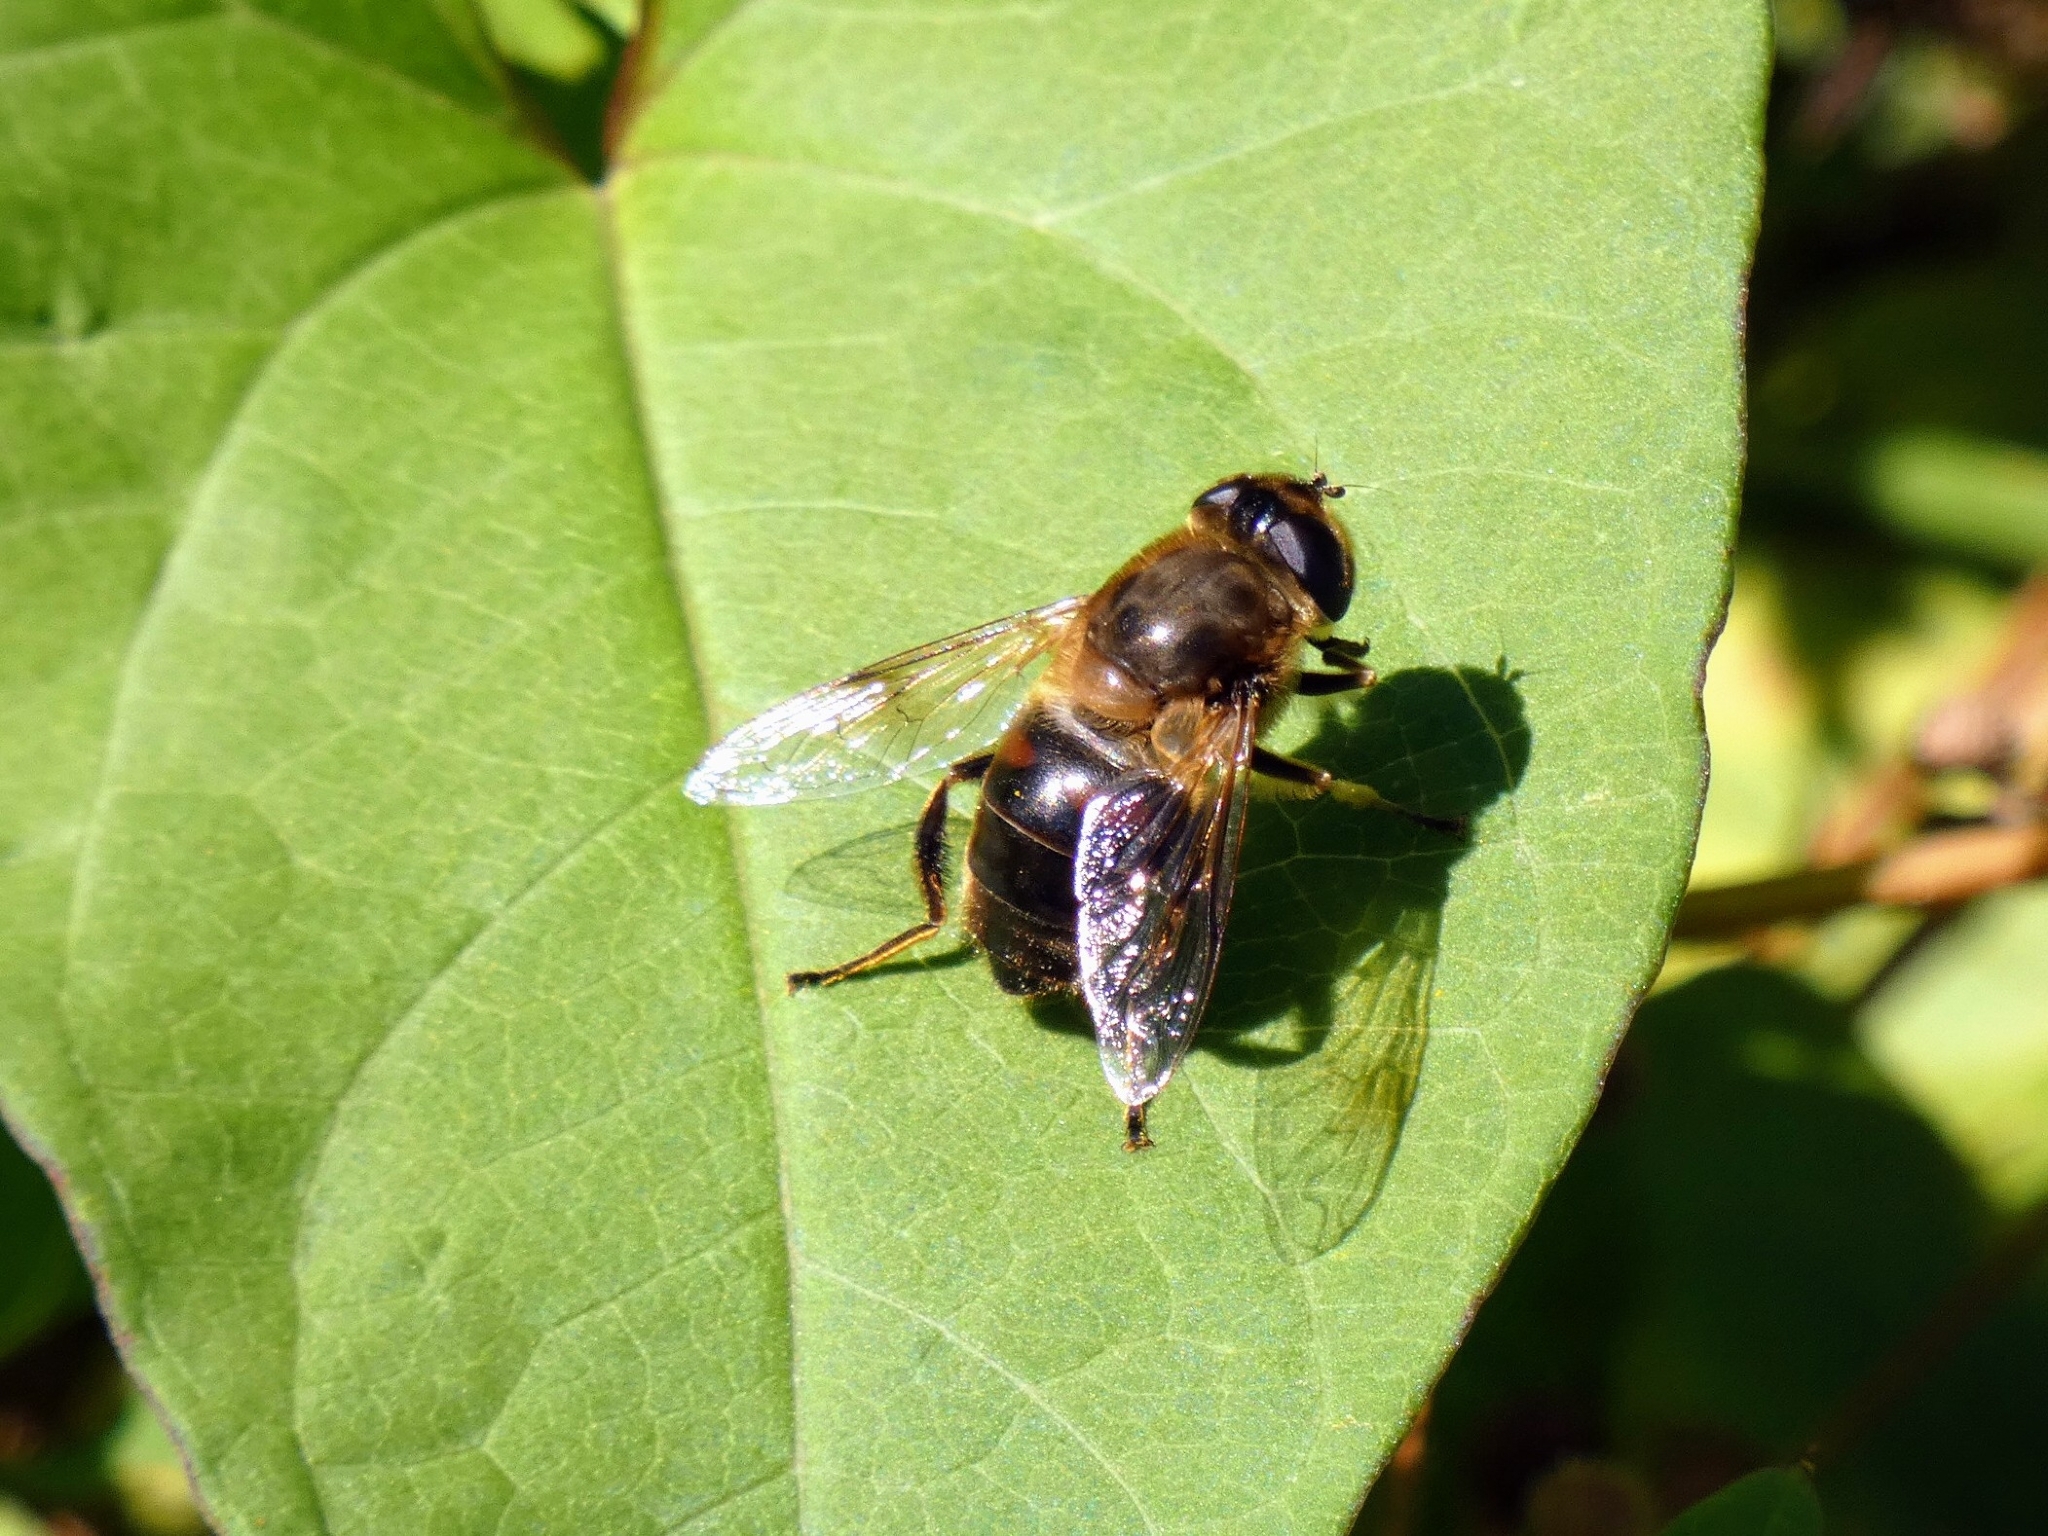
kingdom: Animalia
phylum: Arthropoda
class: Insecta
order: Diptera
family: Syrphidae
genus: Eristalis
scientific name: Eristalis tenax
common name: Drone fly
